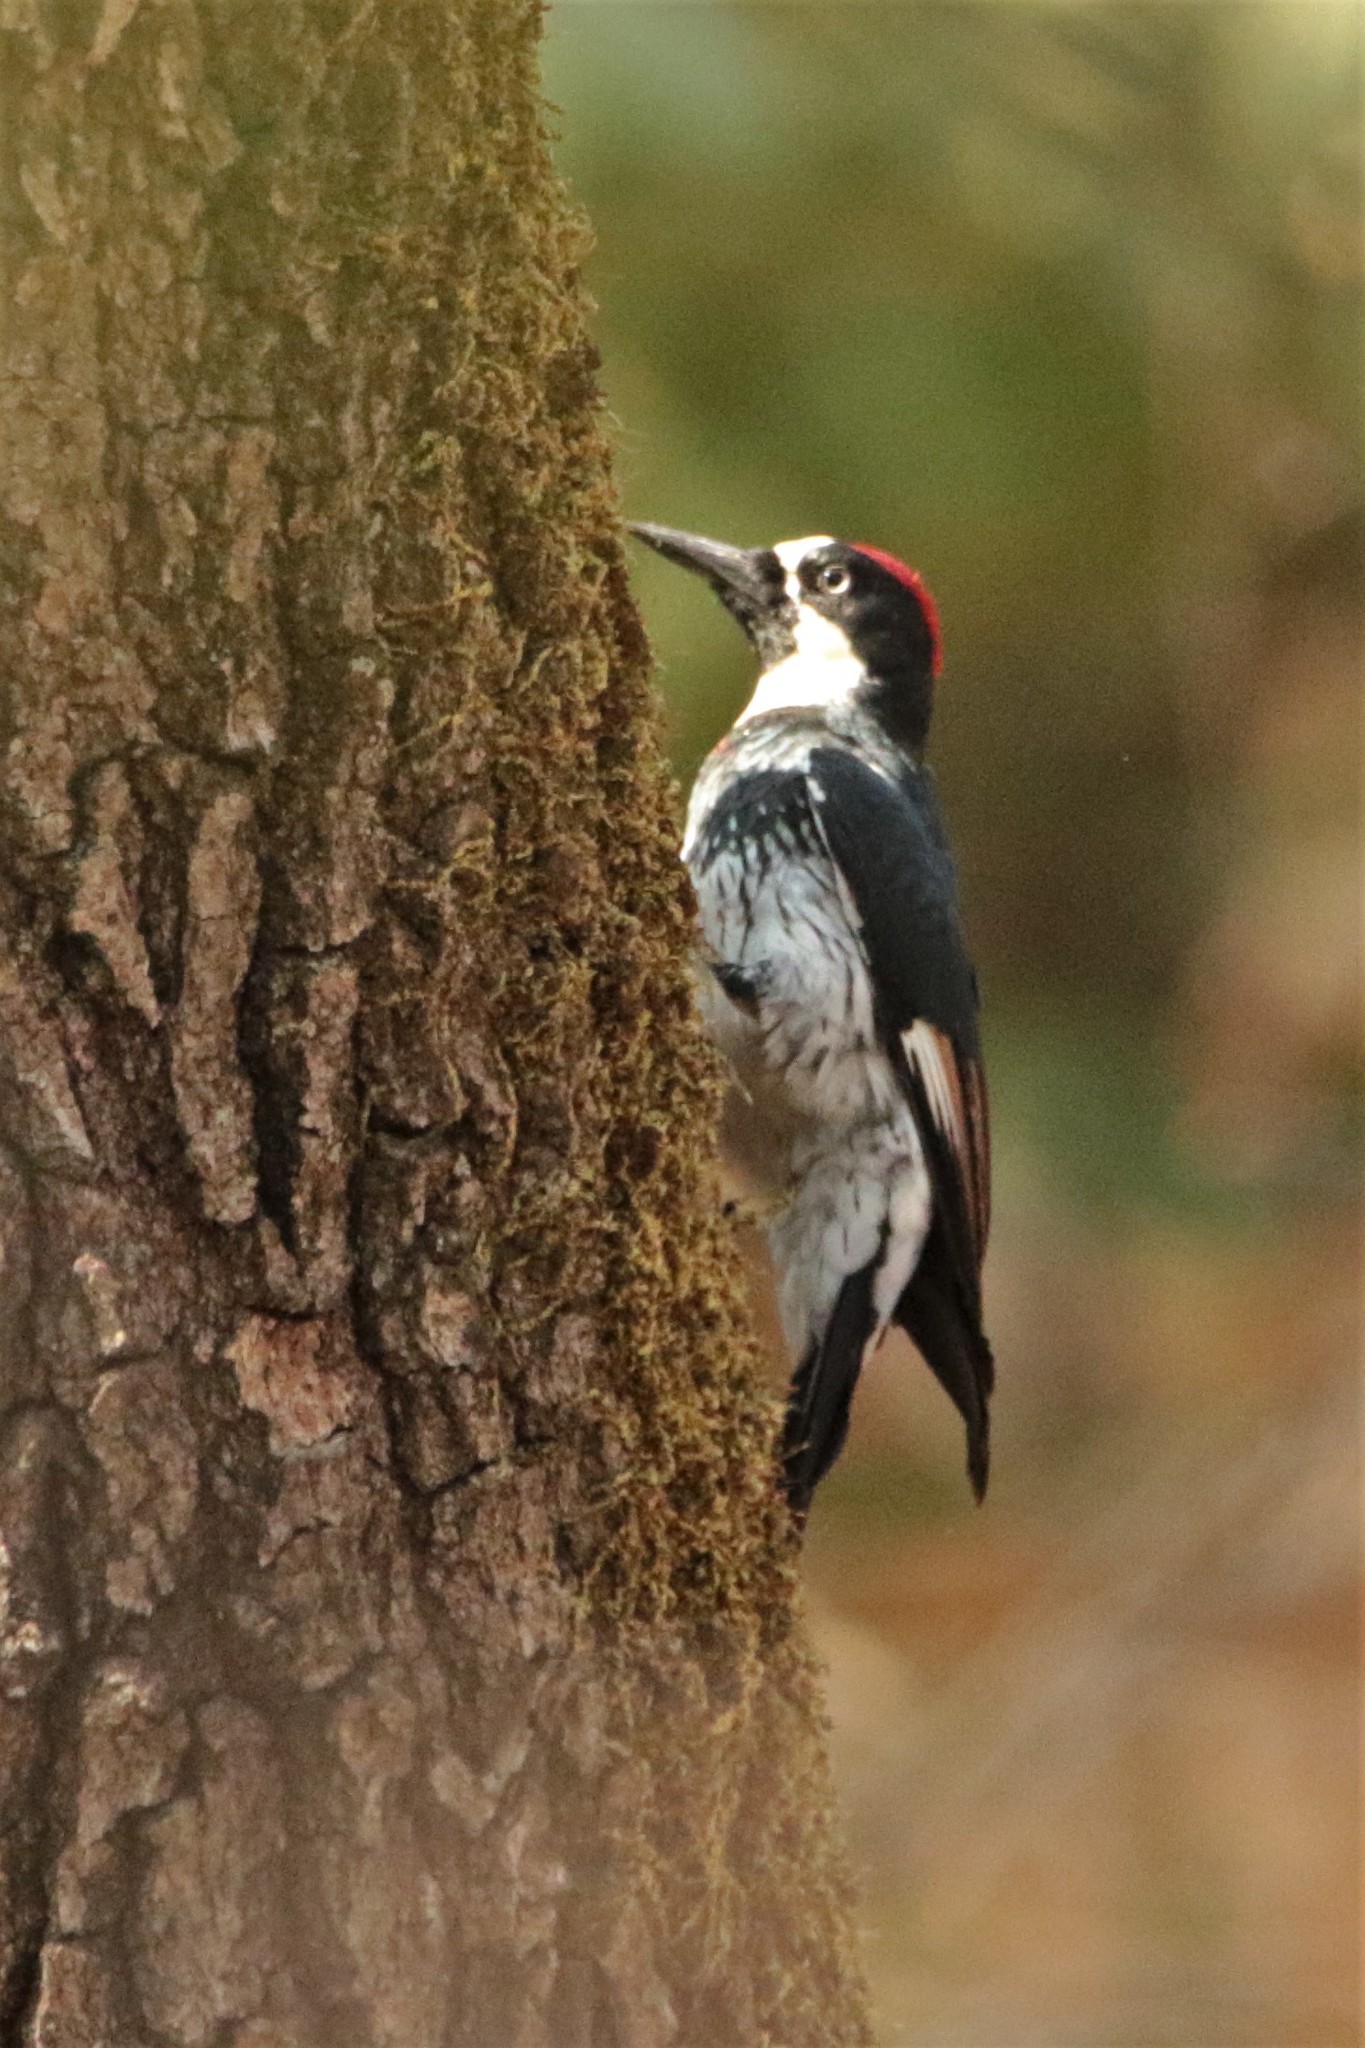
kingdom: Animalia
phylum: Chordata
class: Aves
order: Piciformes
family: Picidae
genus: Melanerpes
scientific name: Melanerpes formicivorus
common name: Acorn woodpecker
